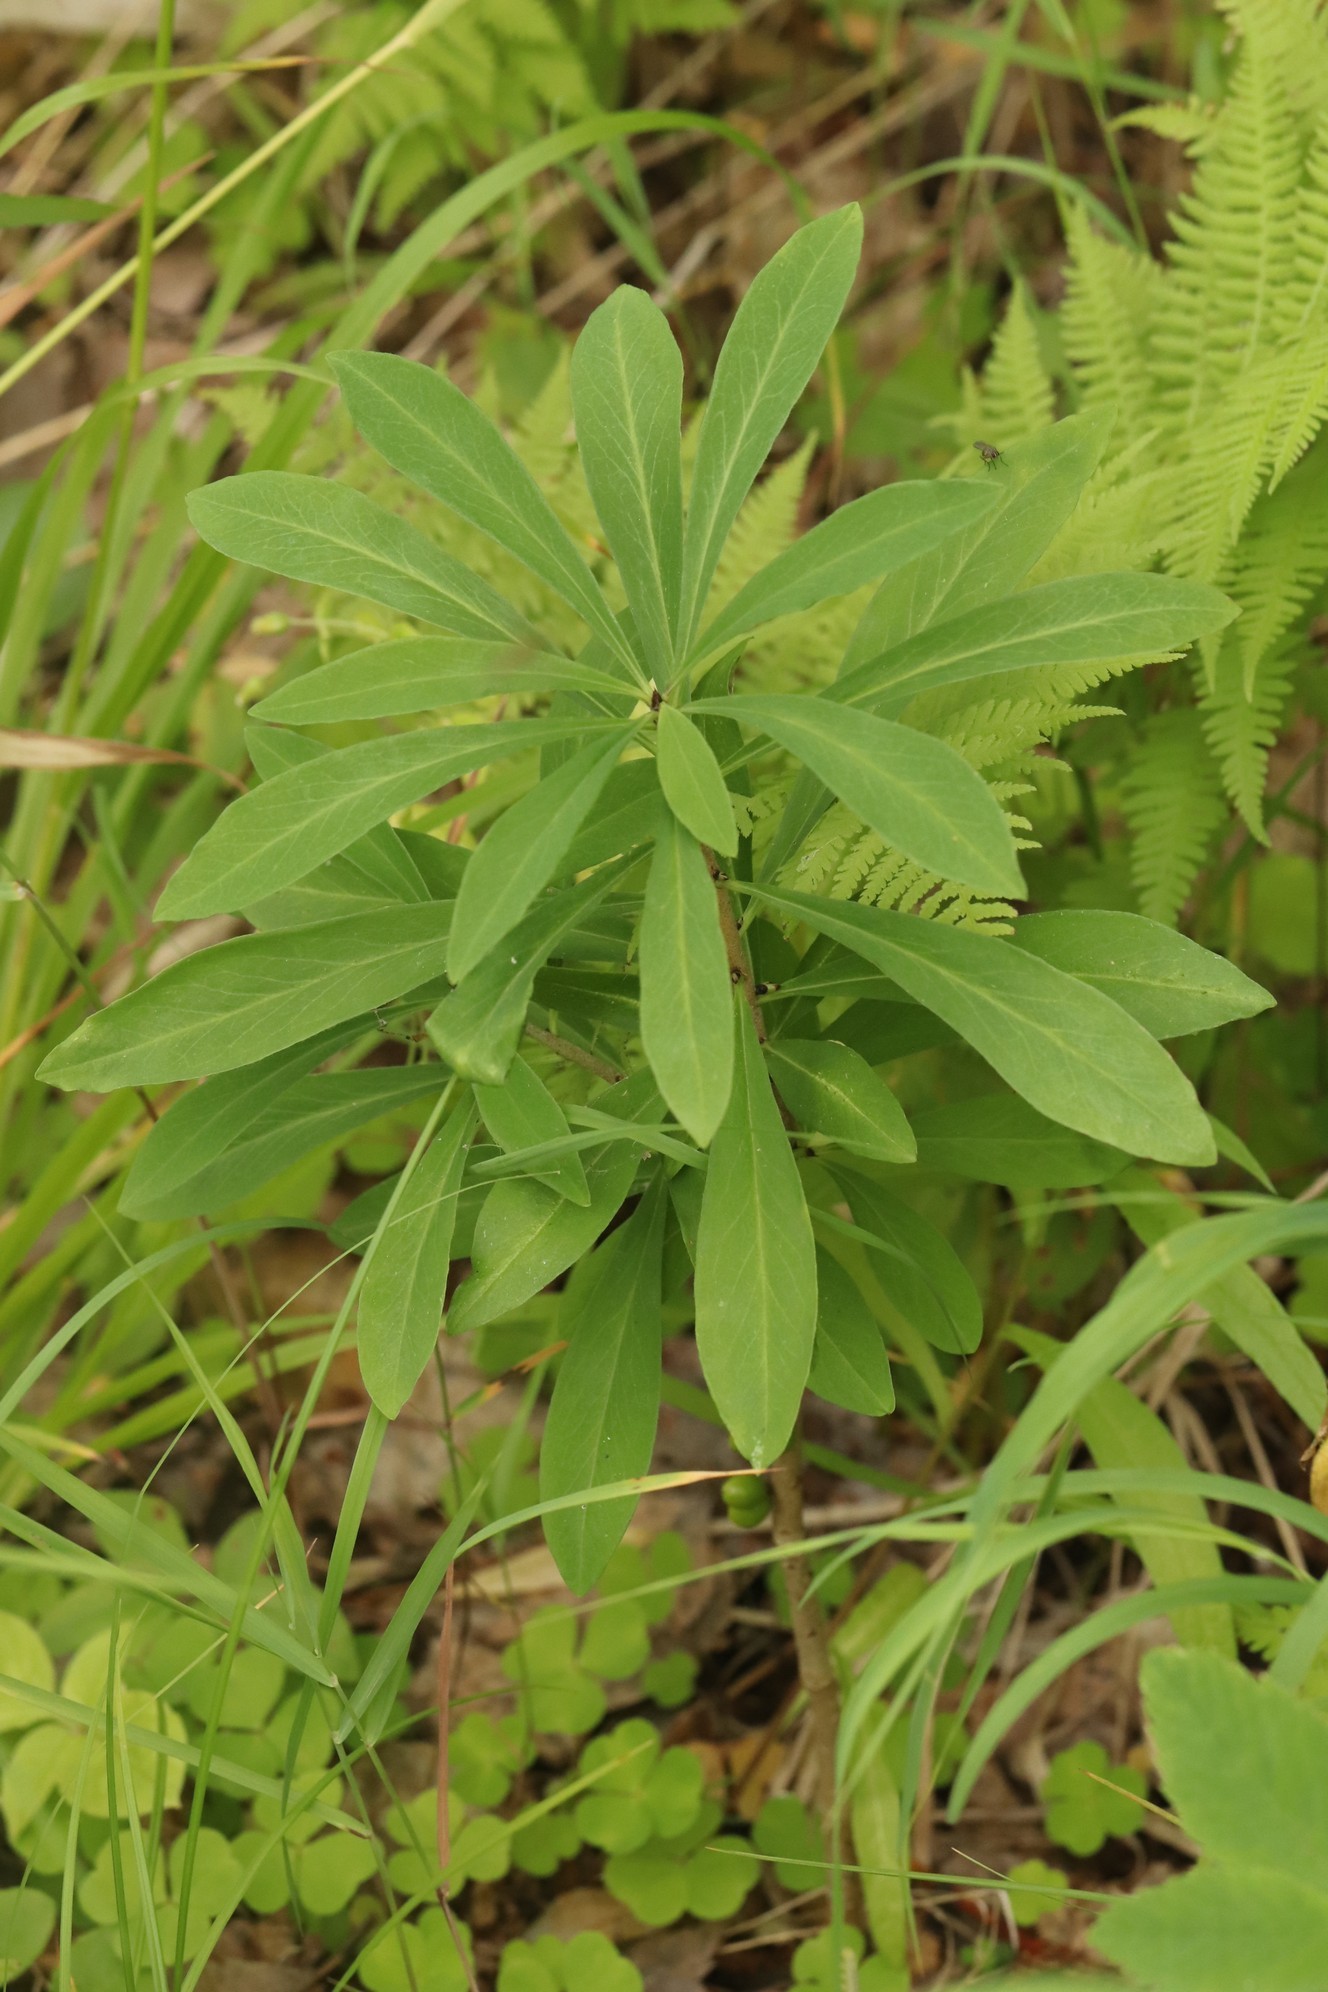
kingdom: Plantae
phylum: Tracheophyta
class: Magnoliopsida
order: Malvales
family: Thymelaeaceae
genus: Daphne
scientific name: Daphne mezereum
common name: Mezereon
